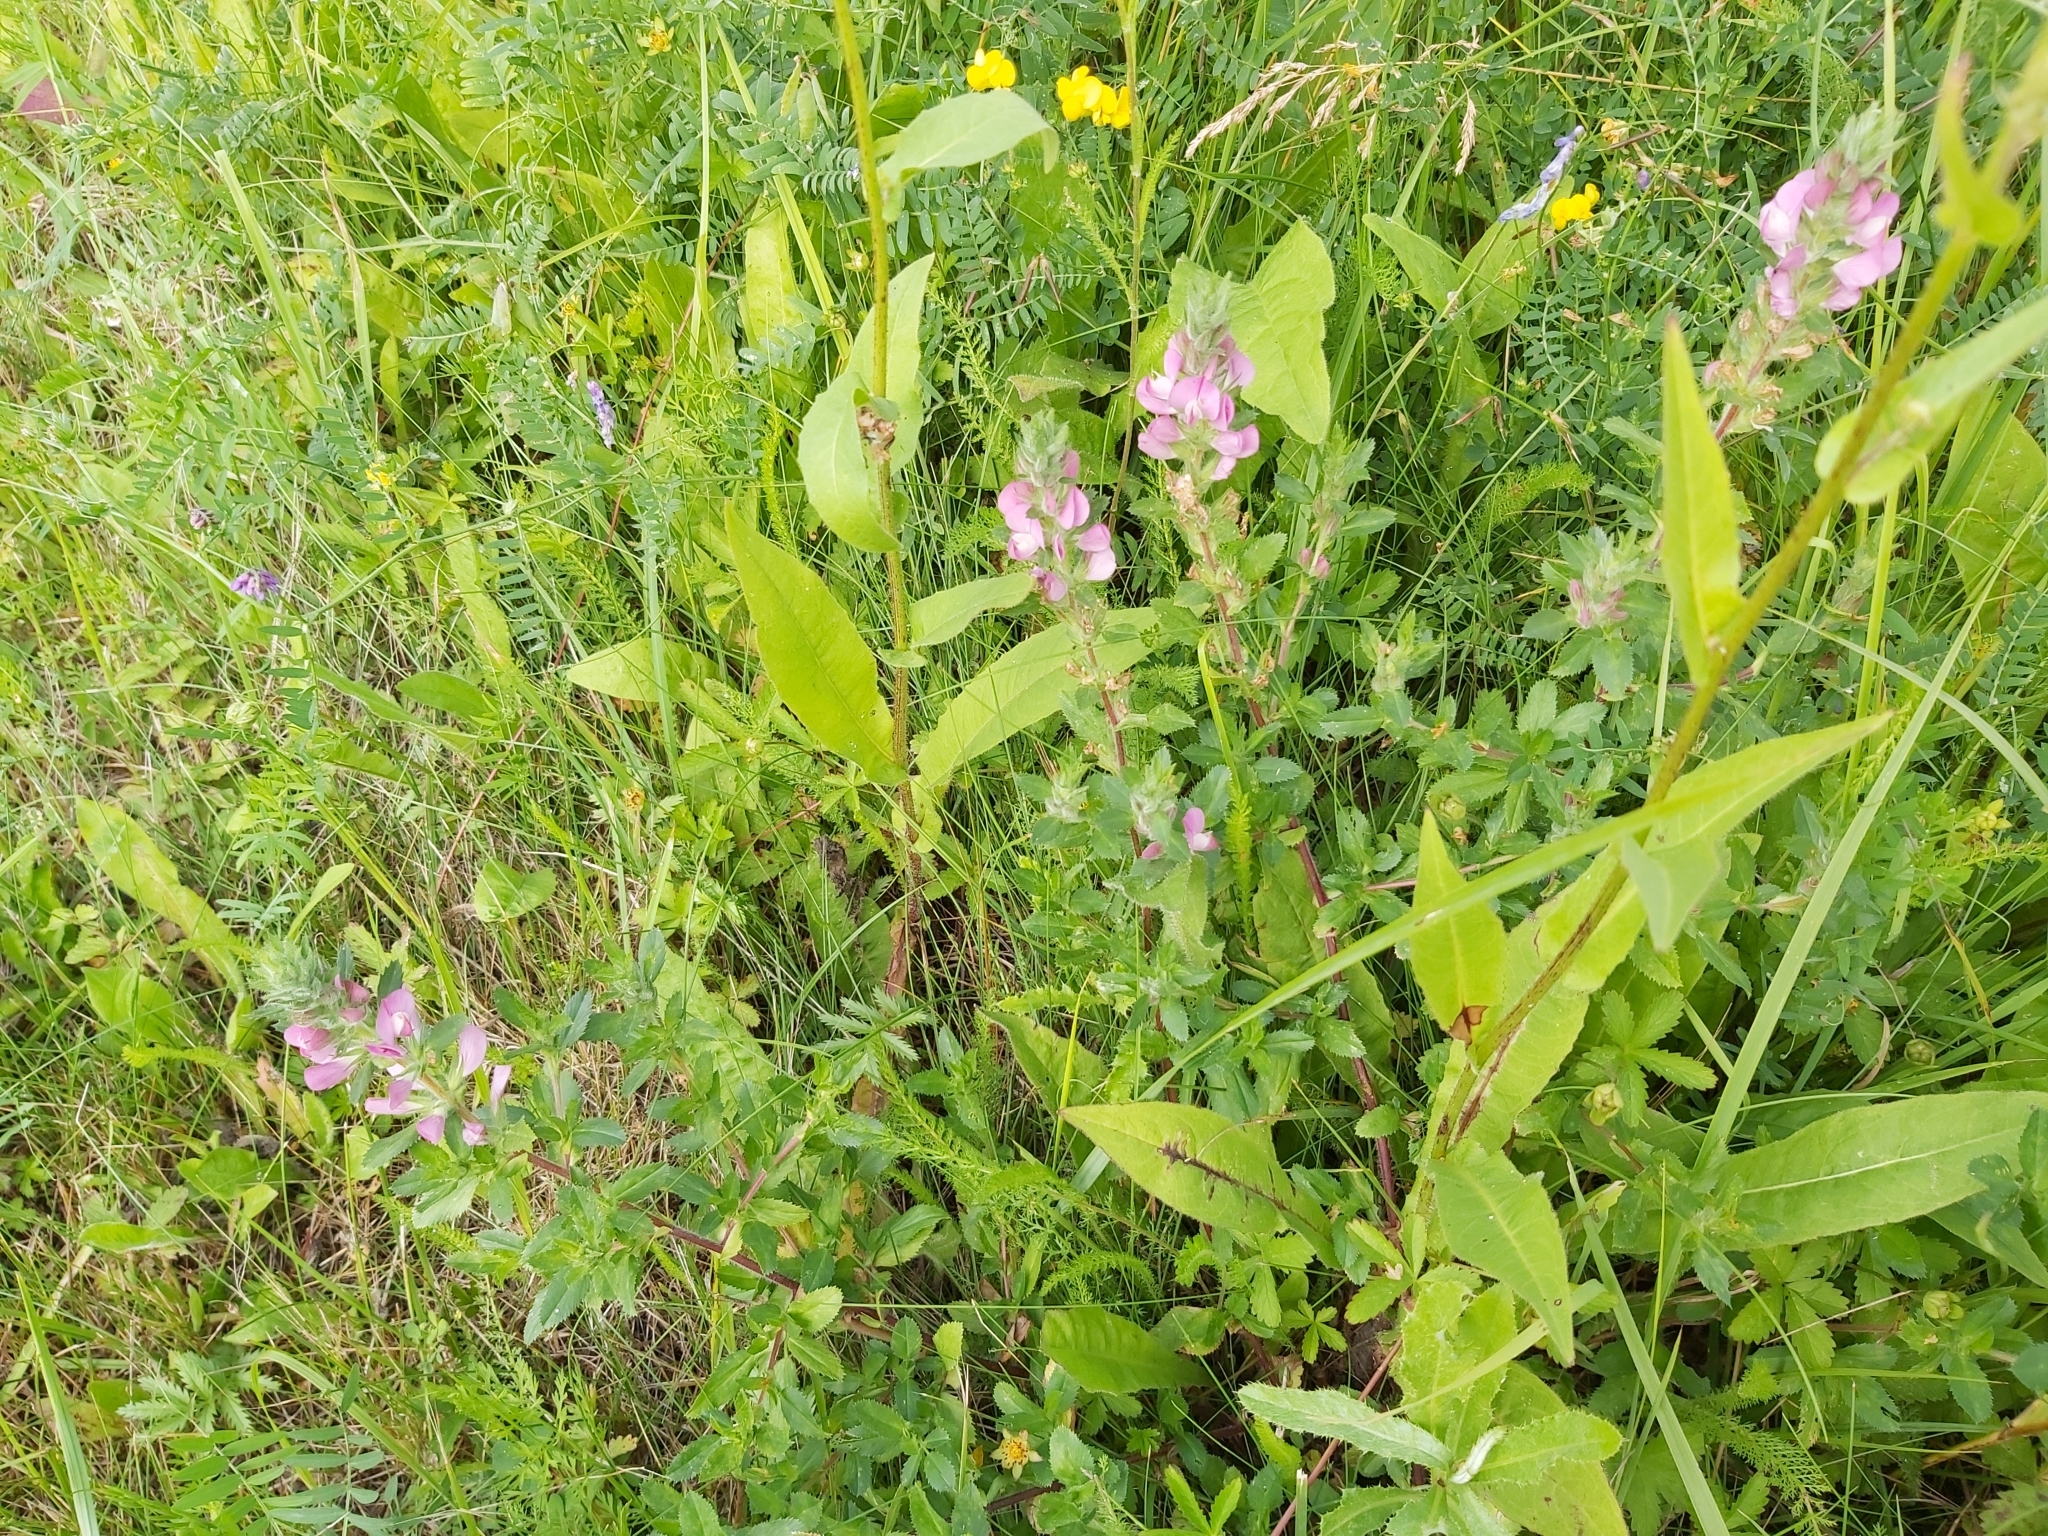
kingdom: Plantae
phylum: Tracheophyta
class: Magnoliopsida
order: Fabales
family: Fabaceae
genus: Ononis
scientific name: Ononis arvensis
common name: Field restharrow
